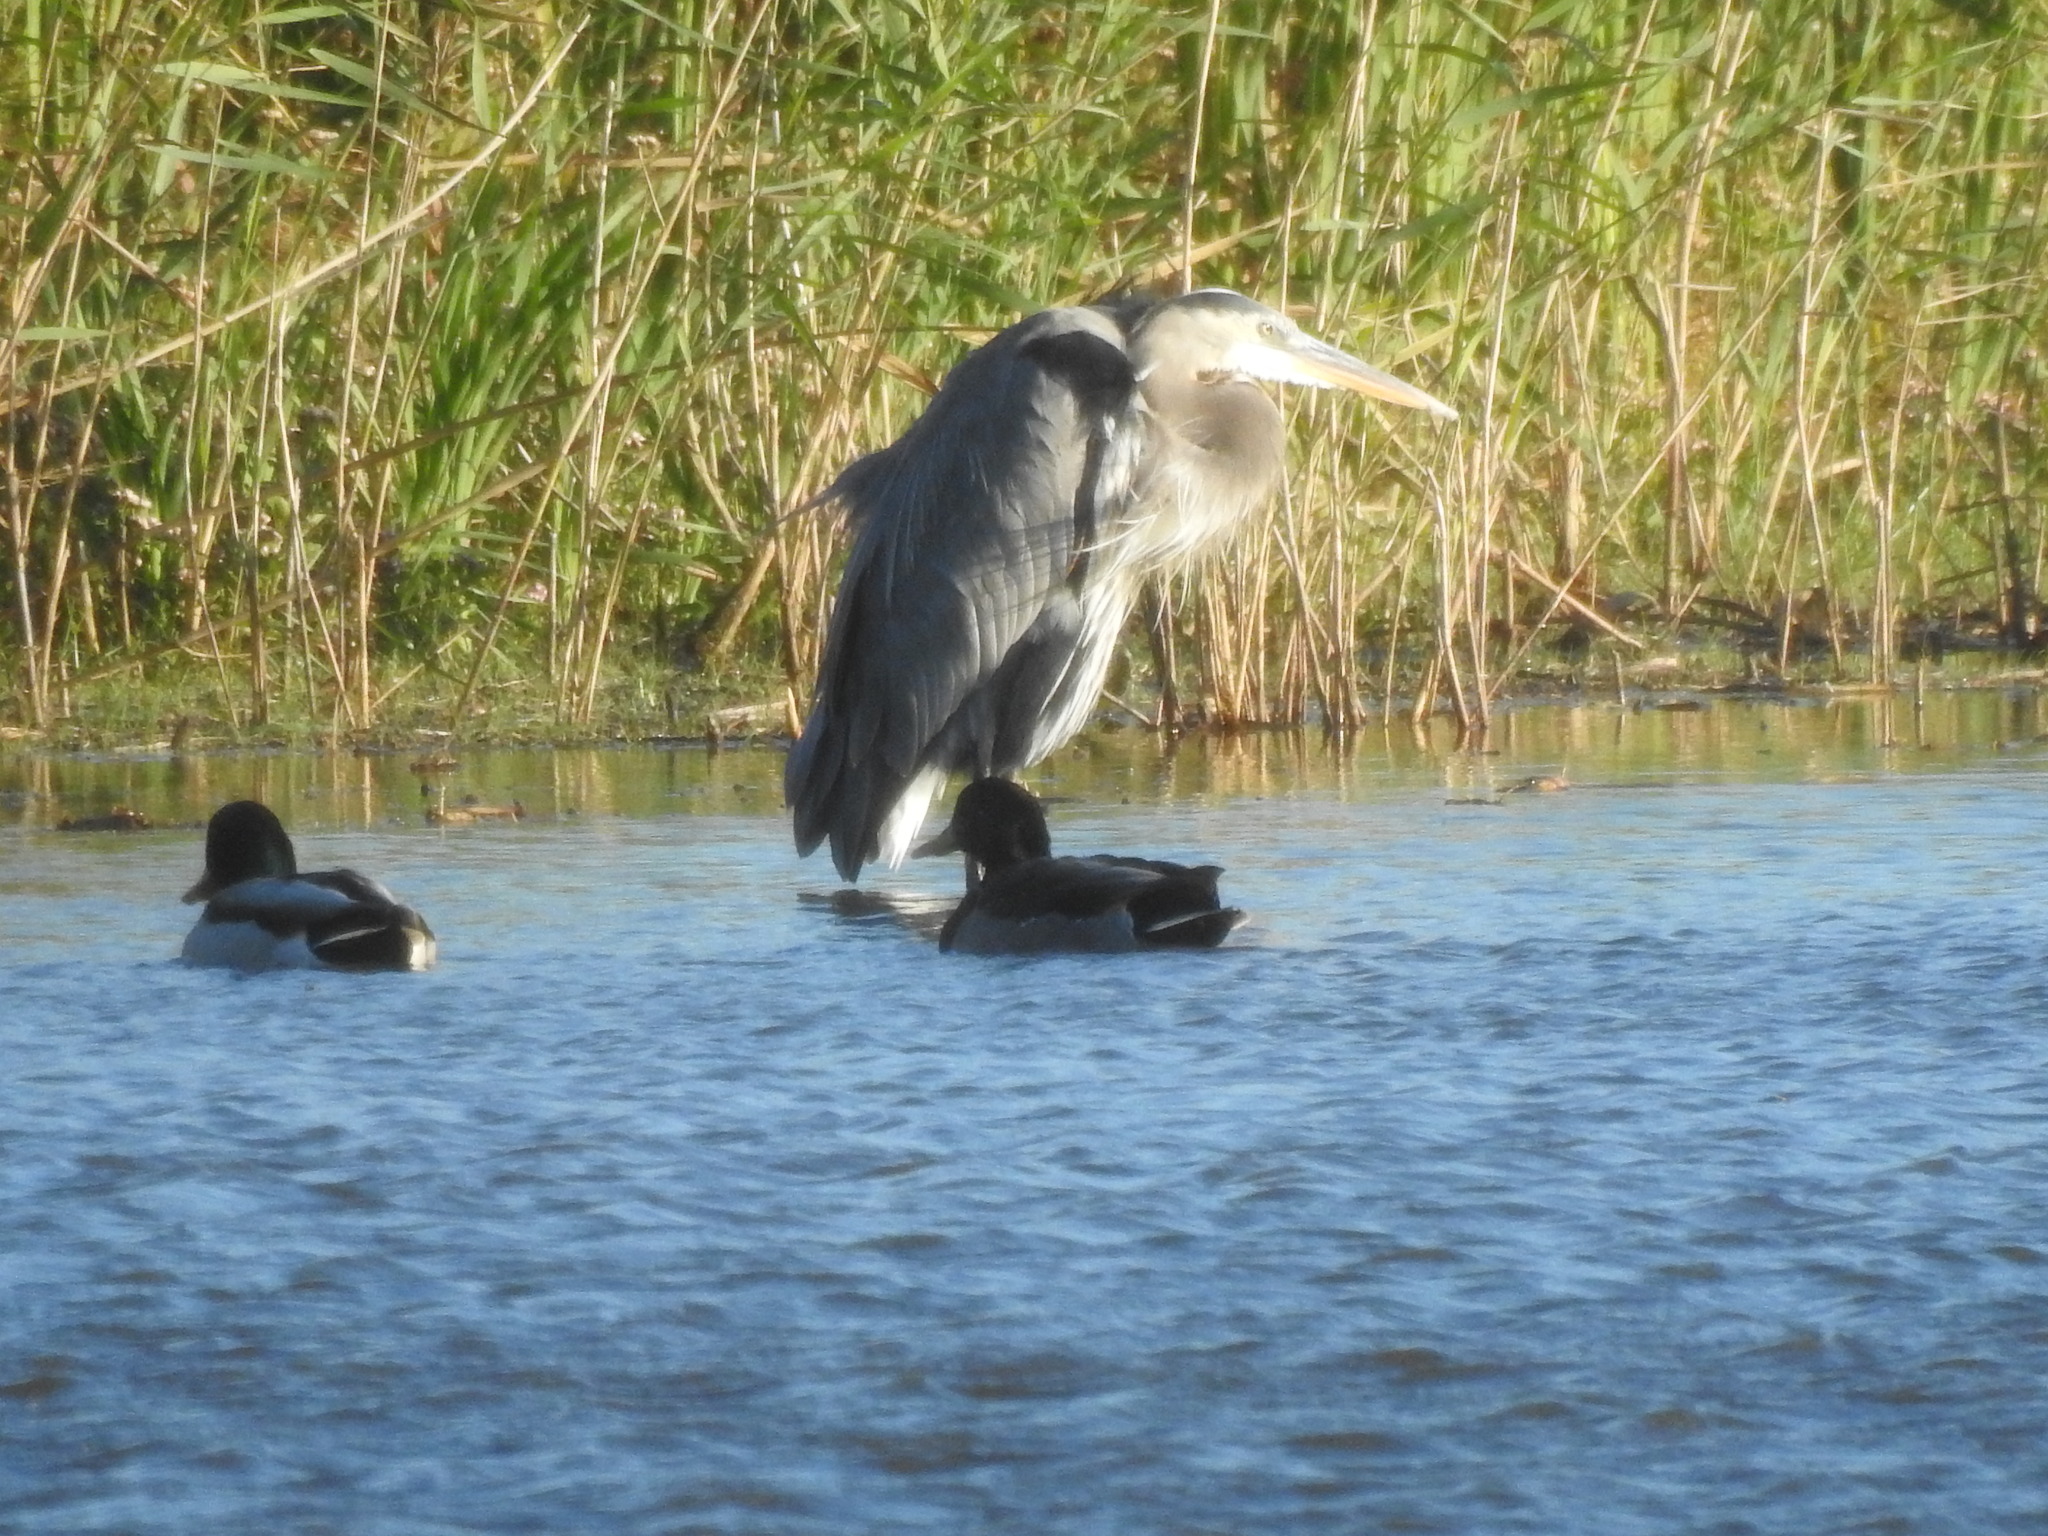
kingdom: Animalia
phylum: Chordata
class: Aves
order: Pelecaniformes
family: Ardeidae
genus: Ardea
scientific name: Ardea herodias
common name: Great blue heron
